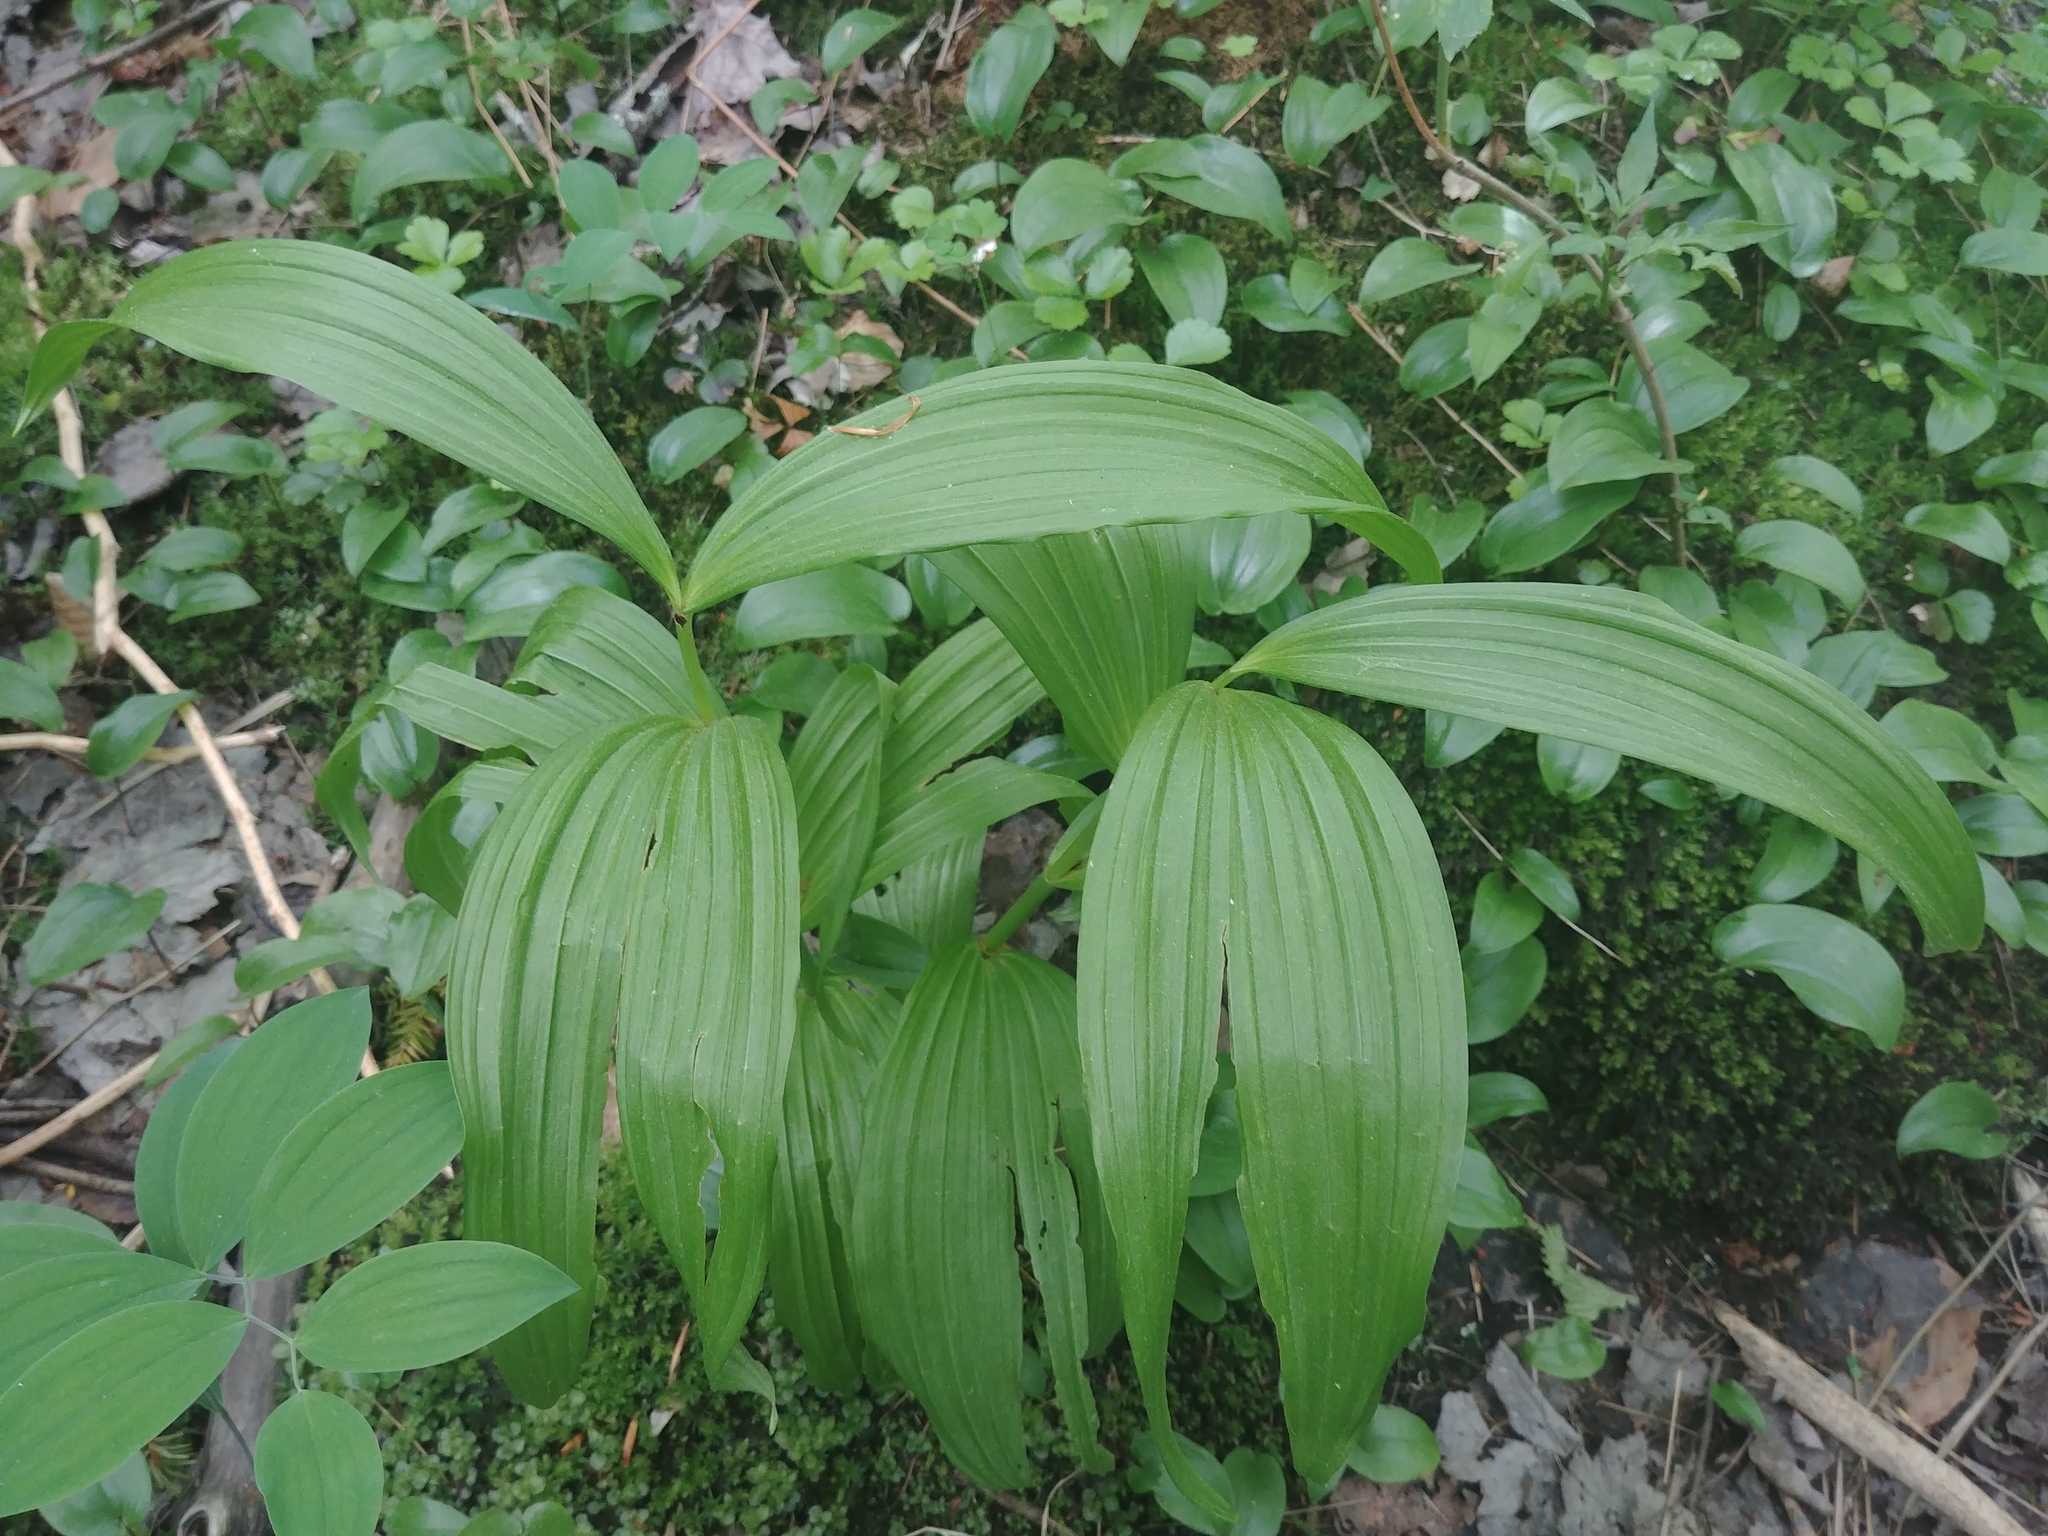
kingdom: Plantae
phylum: Tracheophyta
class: Liliopsida
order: Liliales
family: Melanthiaceae
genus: Veratrum
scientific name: Veratrum viride
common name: American false hellebore
